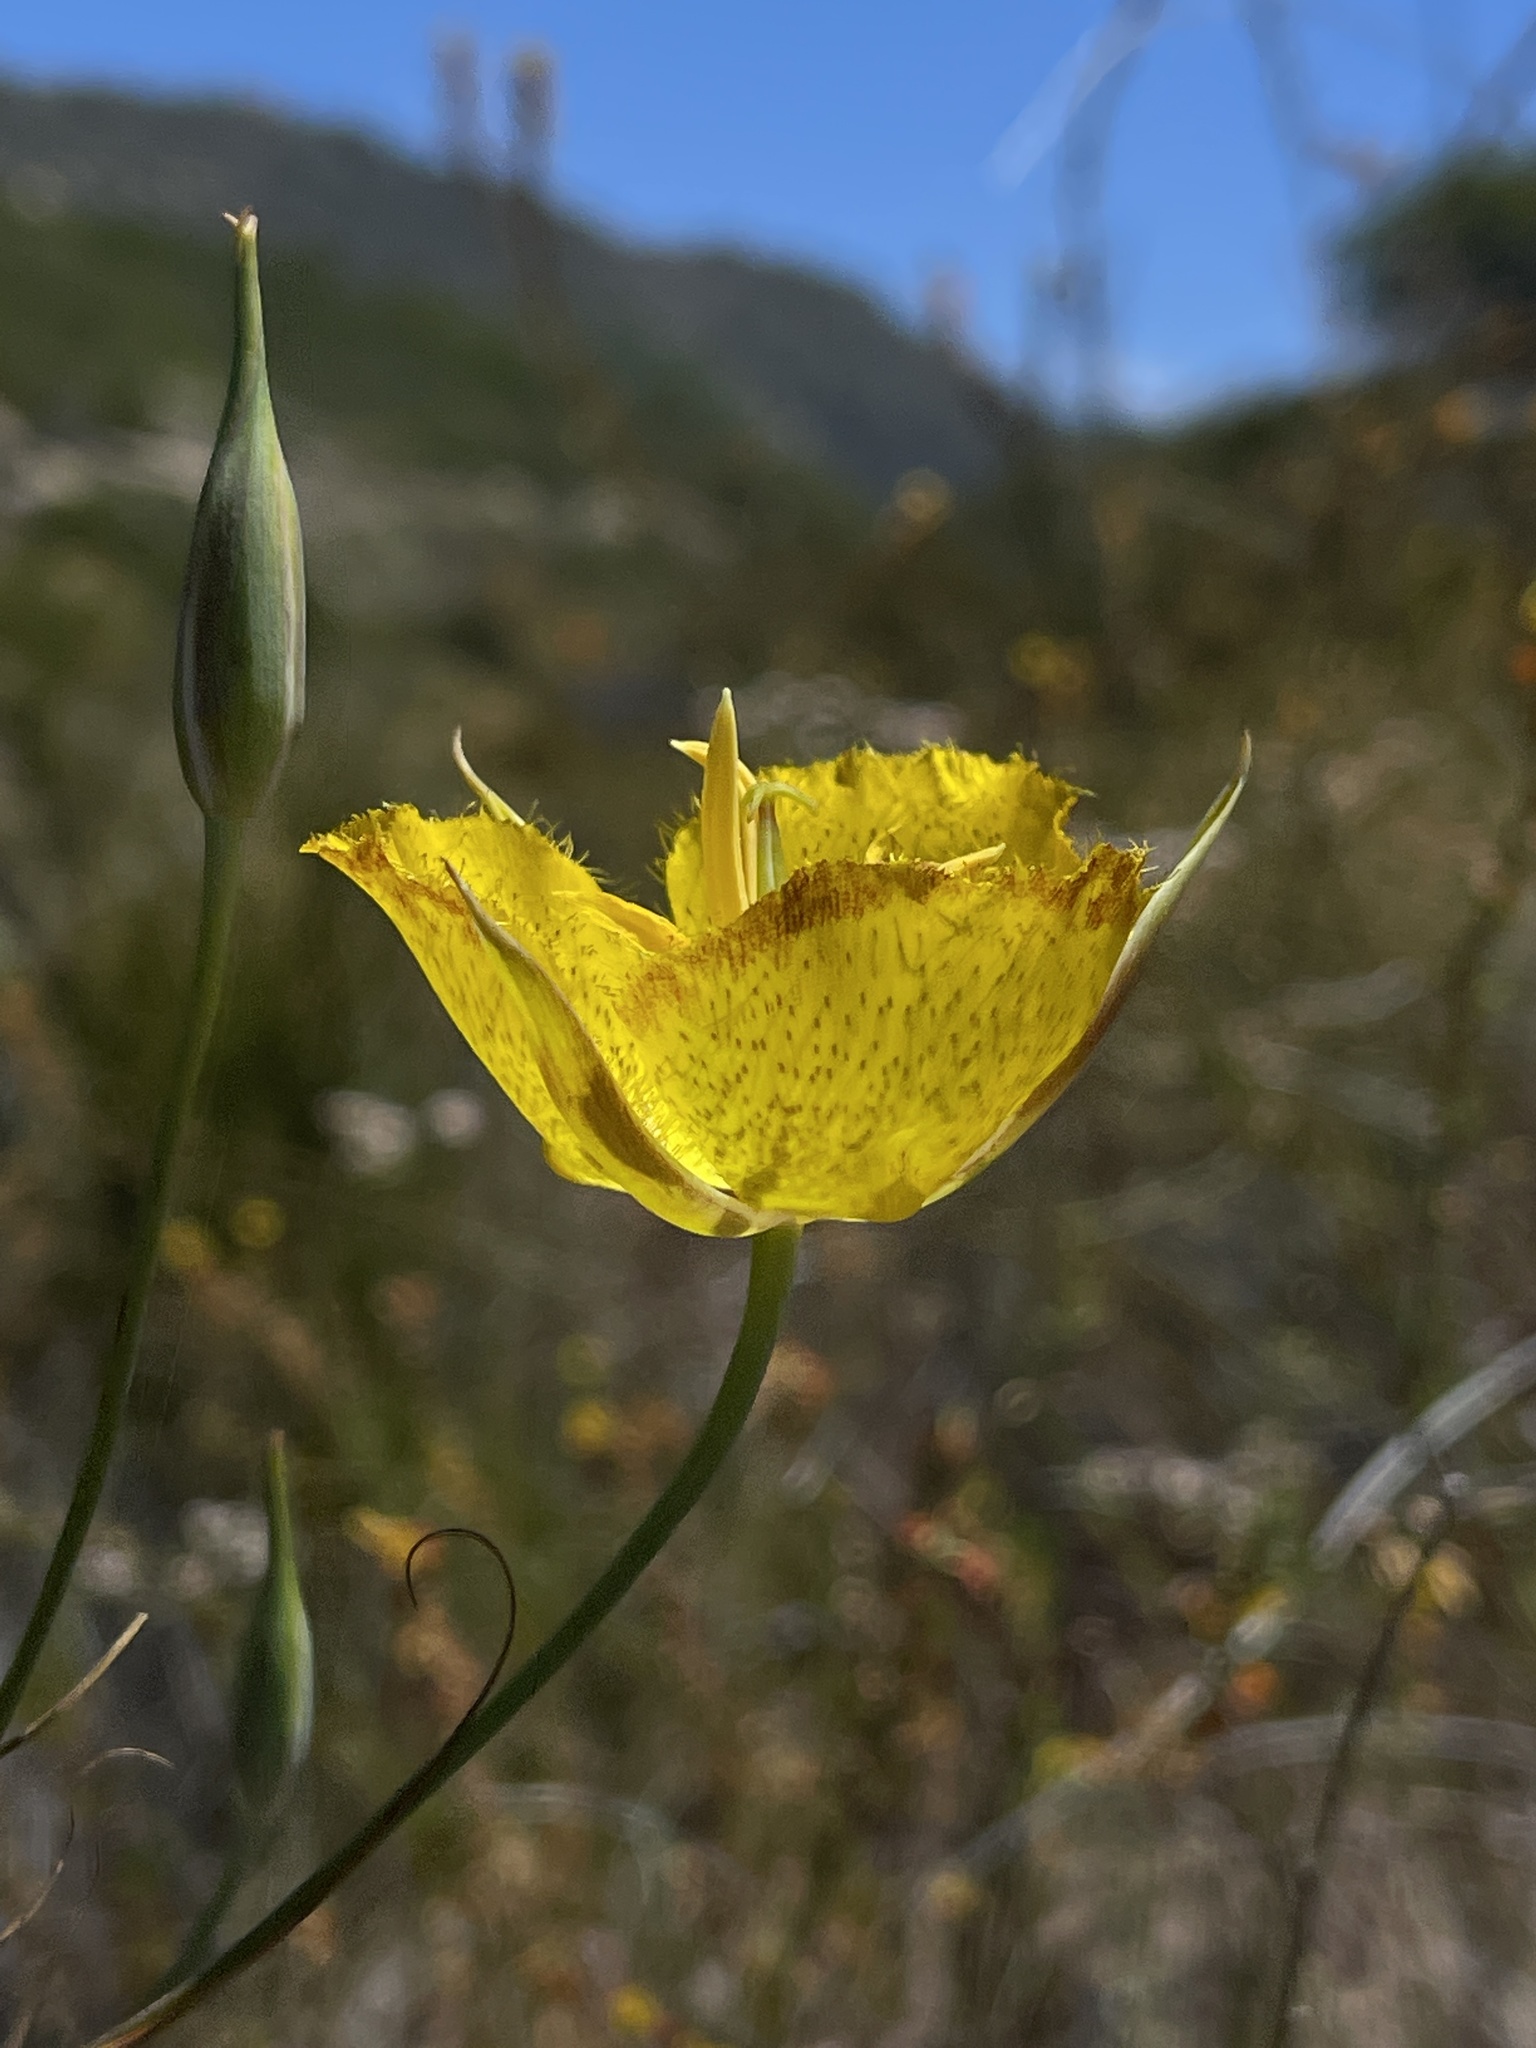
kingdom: Plantae
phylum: Tracheophyta
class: Liliopsida
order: Liliales
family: Liliaceae
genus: Calochortus
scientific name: Calochortus weedii
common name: Weed's mariposa-lily
